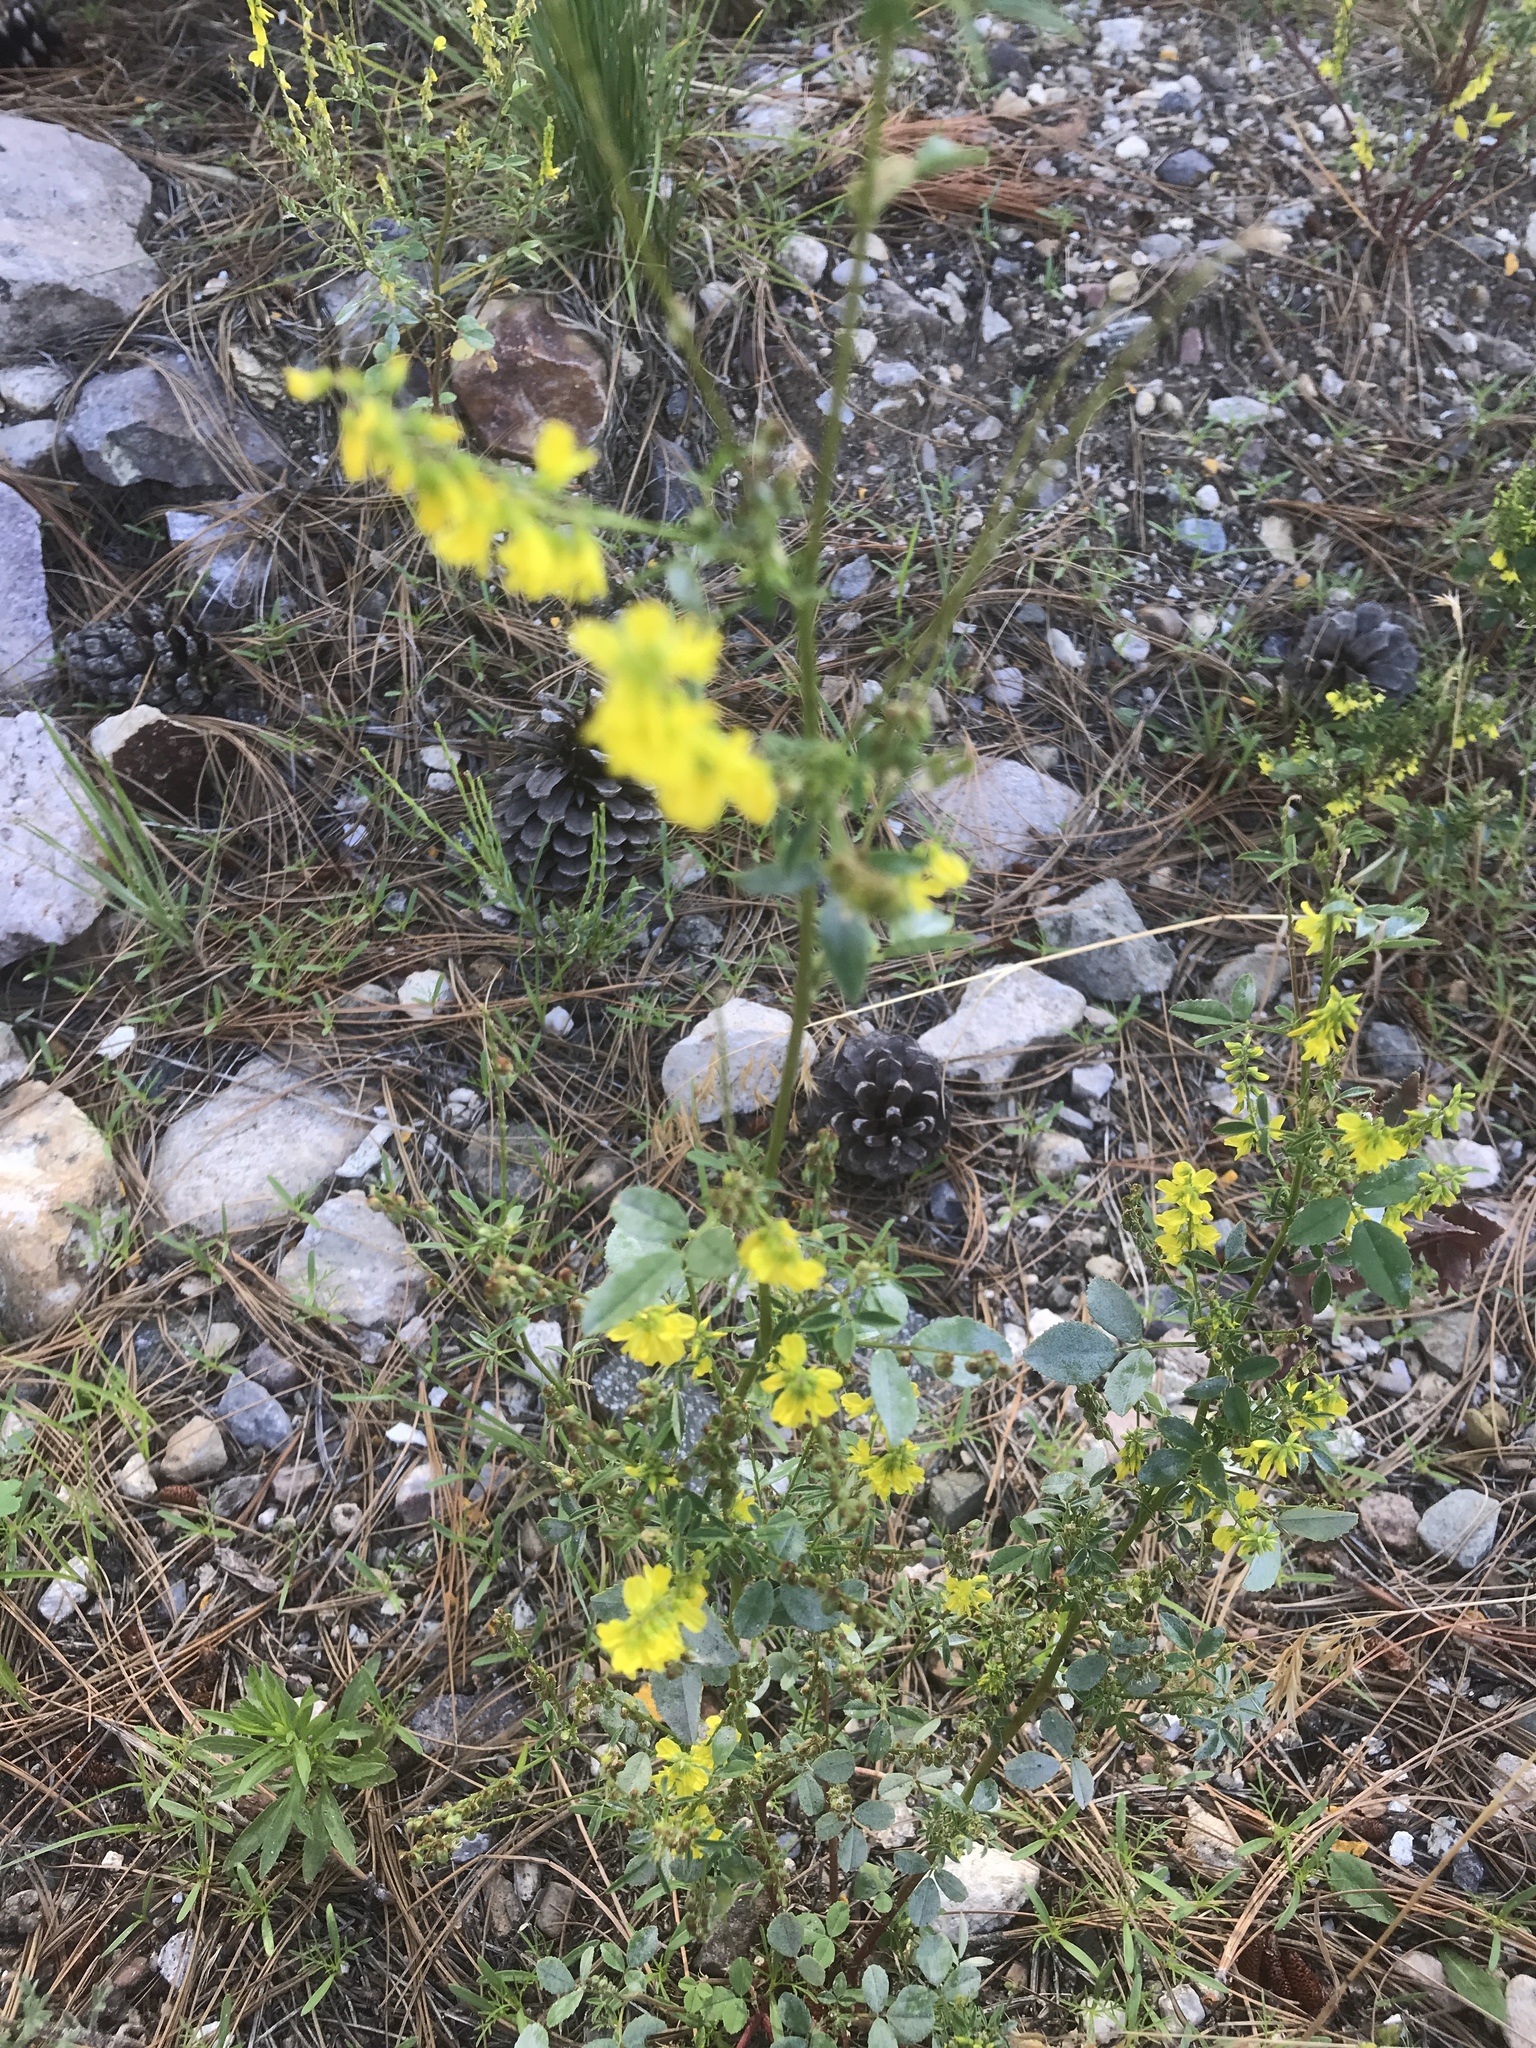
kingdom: Plantae
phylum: Tracheophyta
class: Magnoliopsida
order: Fabales
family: Fabaceae
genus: Melilotus
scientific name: Melilotus officinalis
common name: Sweetclover
